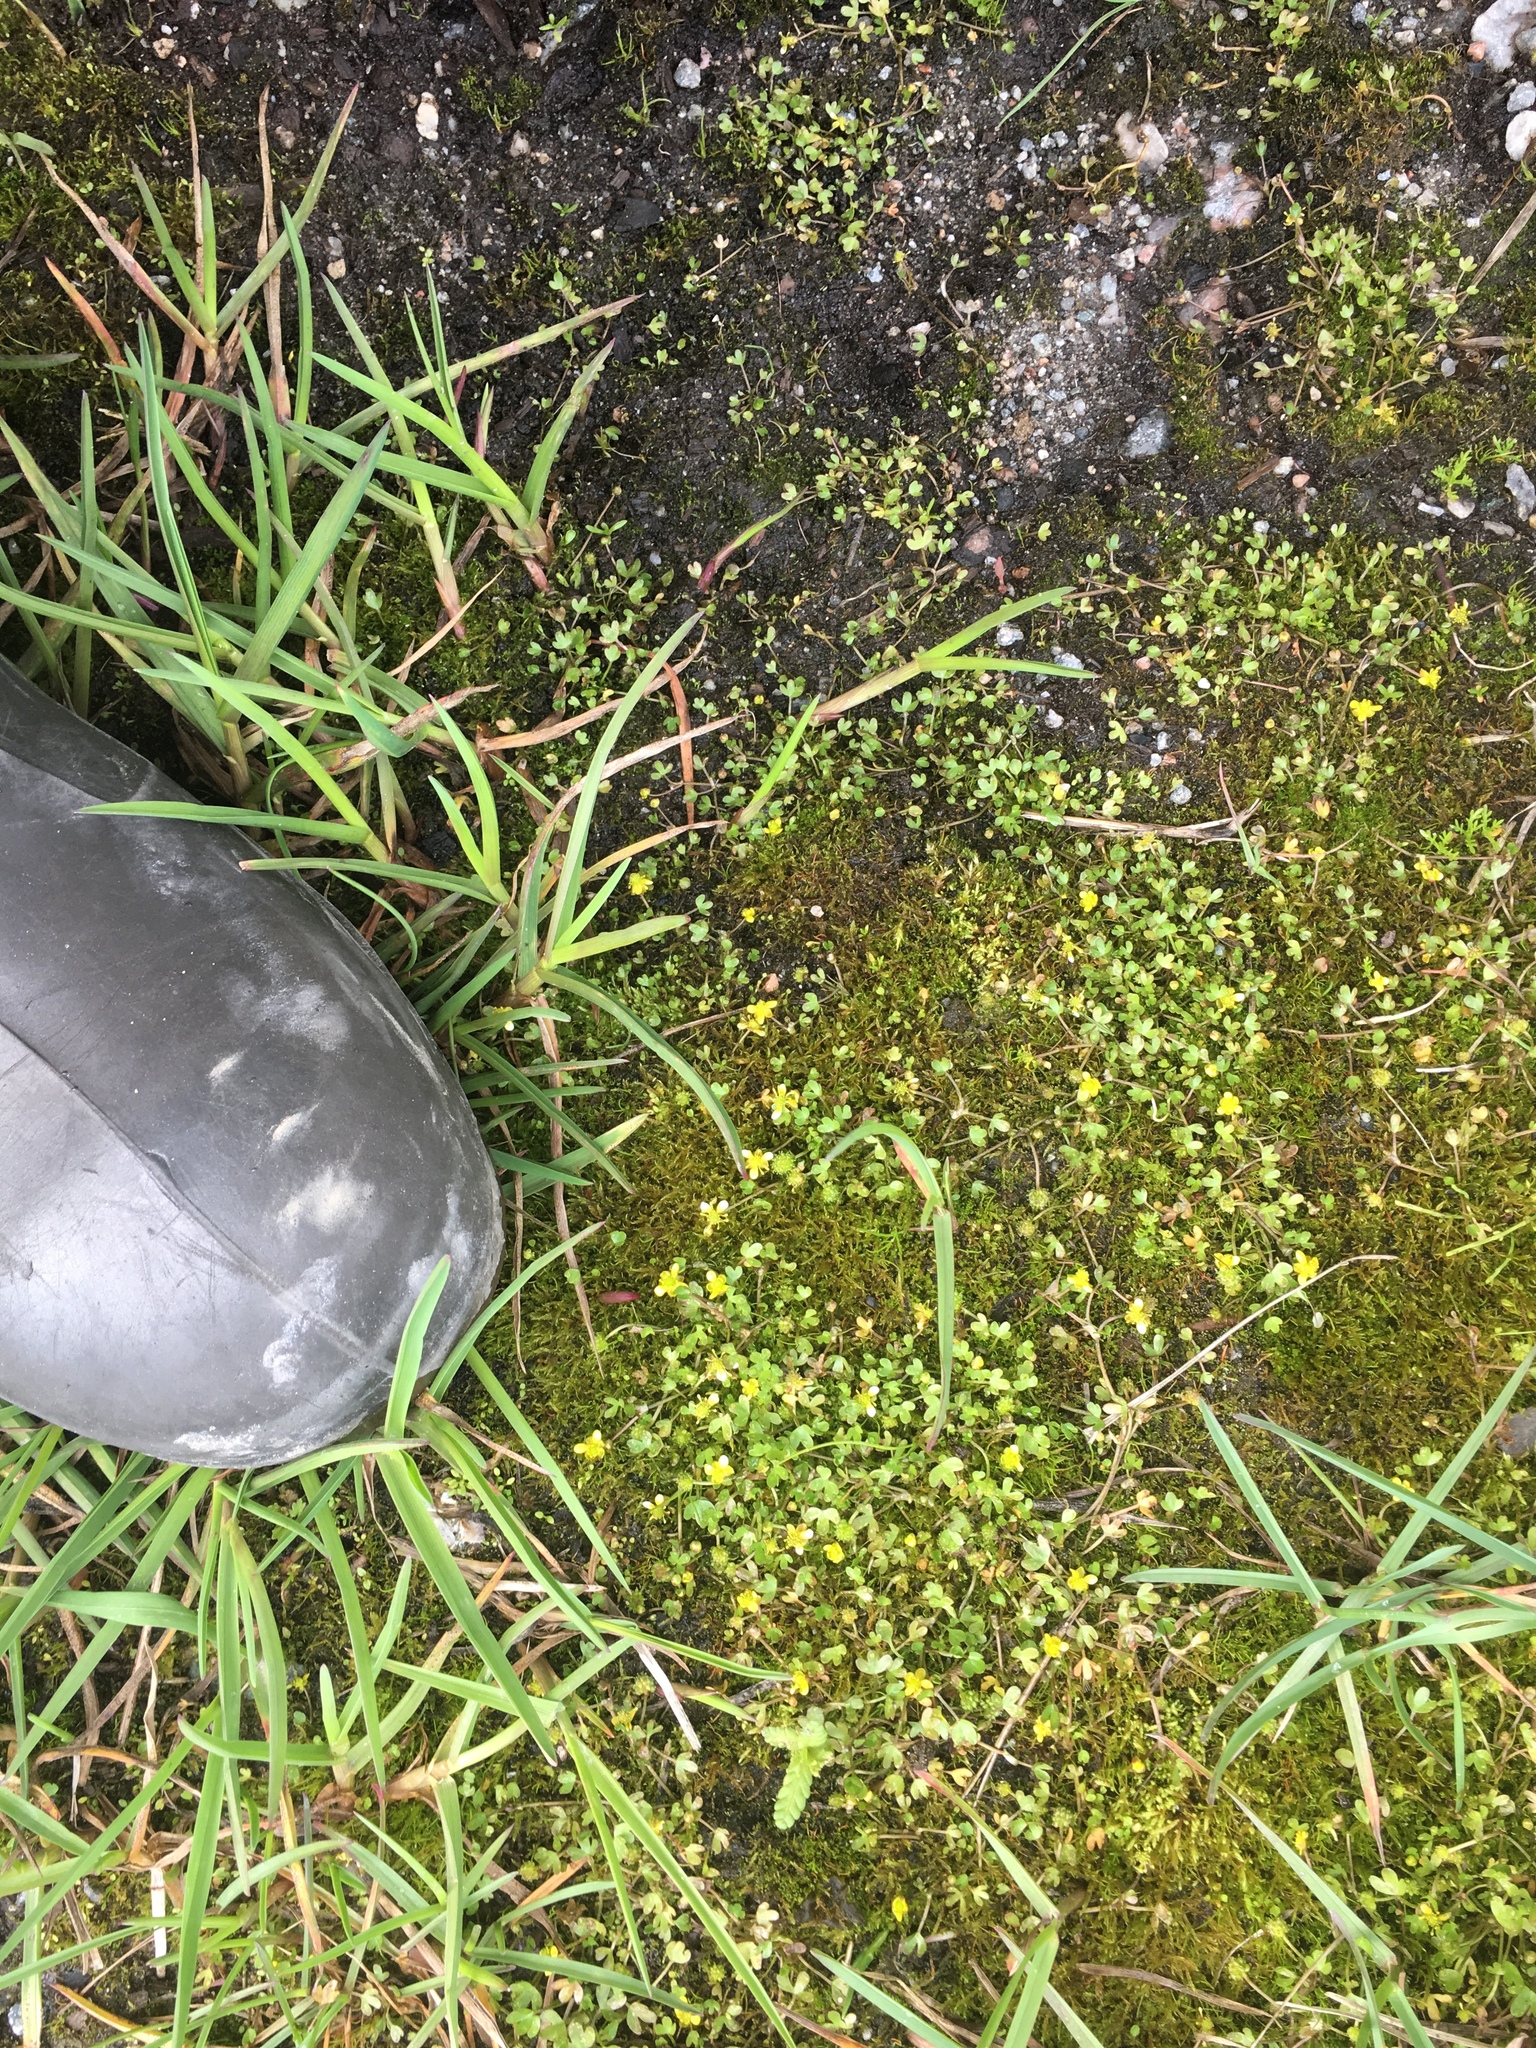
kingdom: Plantae
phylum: Tracheophyta
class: Magnoliopsida
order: Ranunculales
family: Ranunculaceae
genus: Ranunculus
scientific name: Ranunculus hyperboreus
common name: Arctic buttercup
